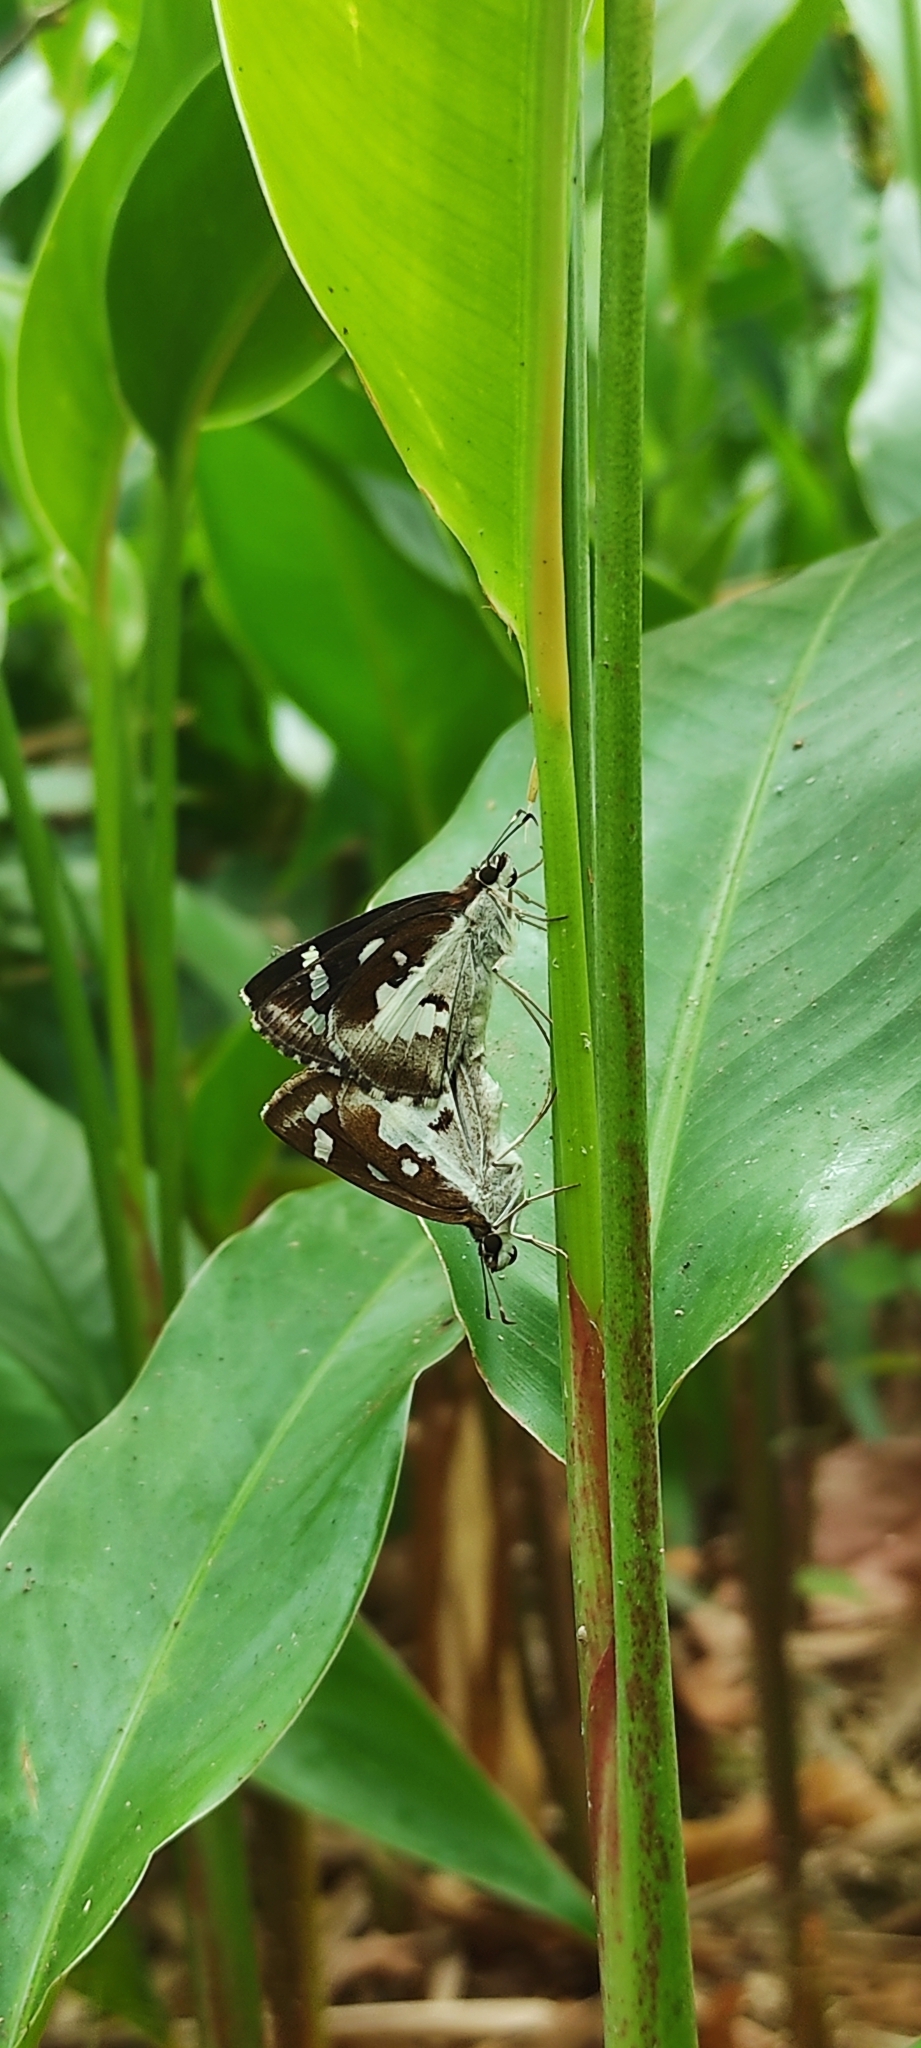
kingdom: Animalia
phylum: Arthropoda
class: Insecta
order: Lepidoptera
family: Hesperiidae
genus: Udaspes
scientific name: Udaspes folus
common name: Grass demon
